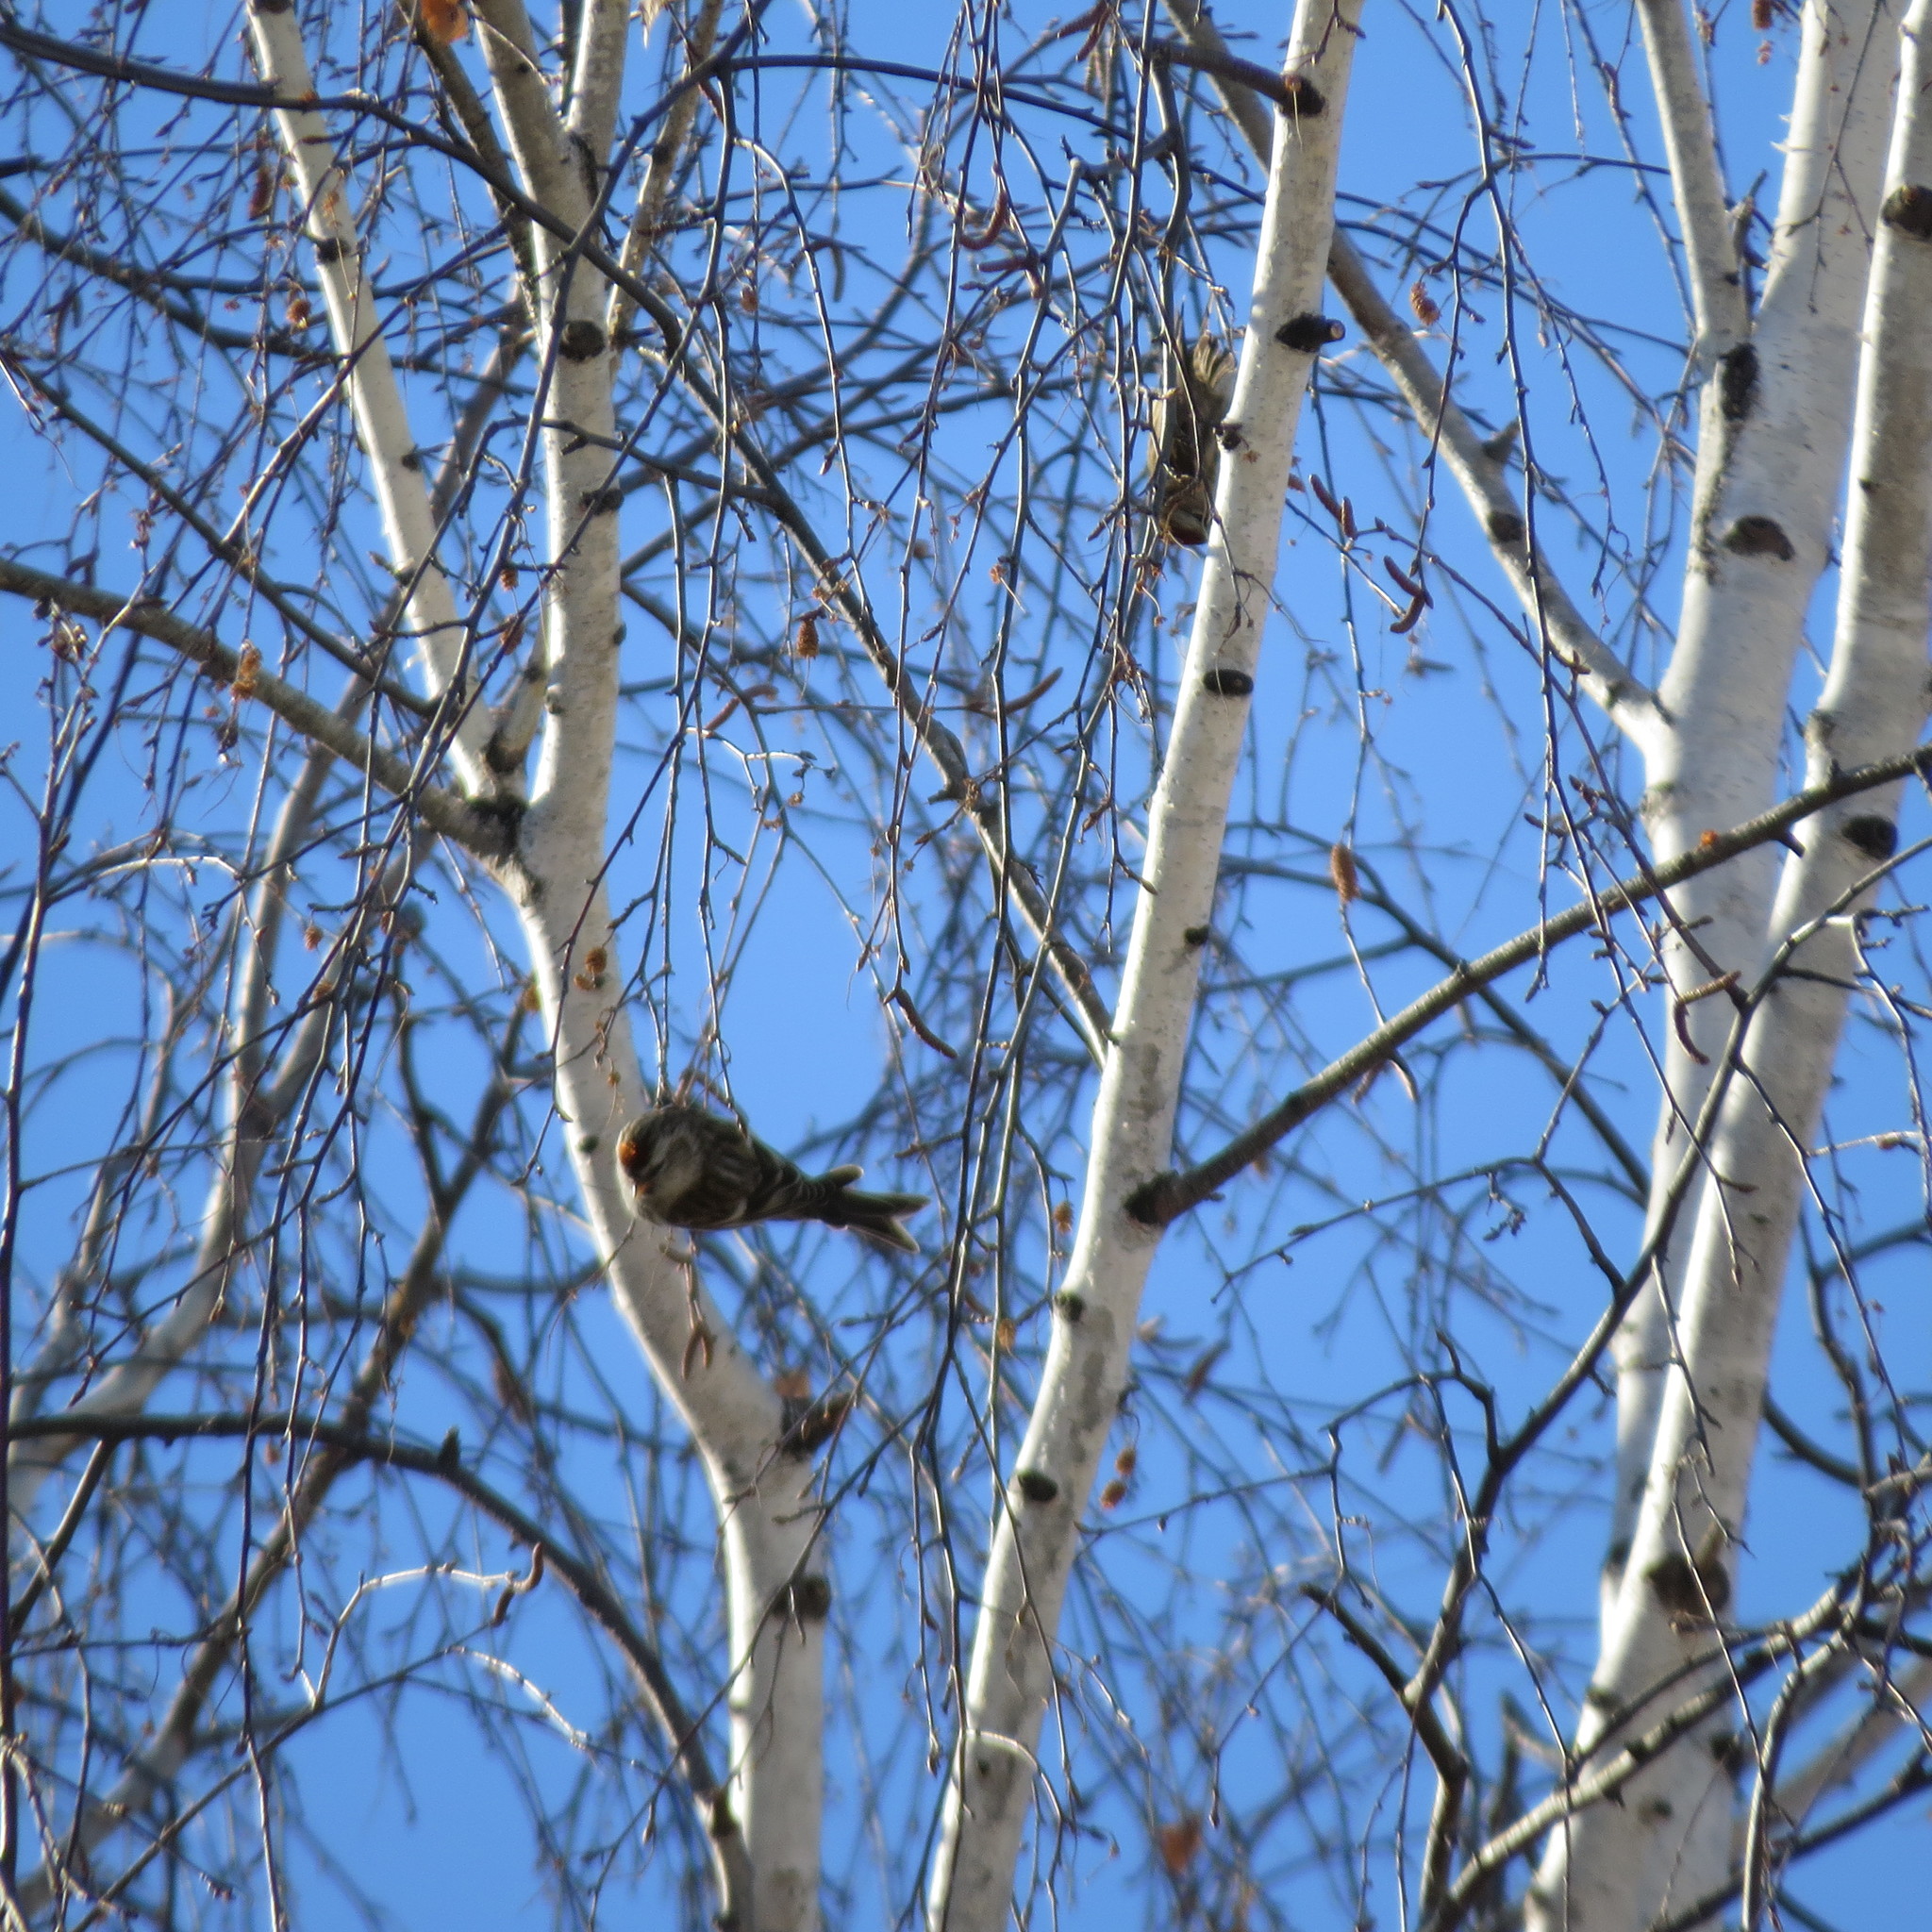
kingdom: Animalia
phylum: Chordata
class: Aves
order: Passeriformes
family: Fringillidae
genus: Acanthis
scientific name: Acanthis flammea
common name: Common redpoll
